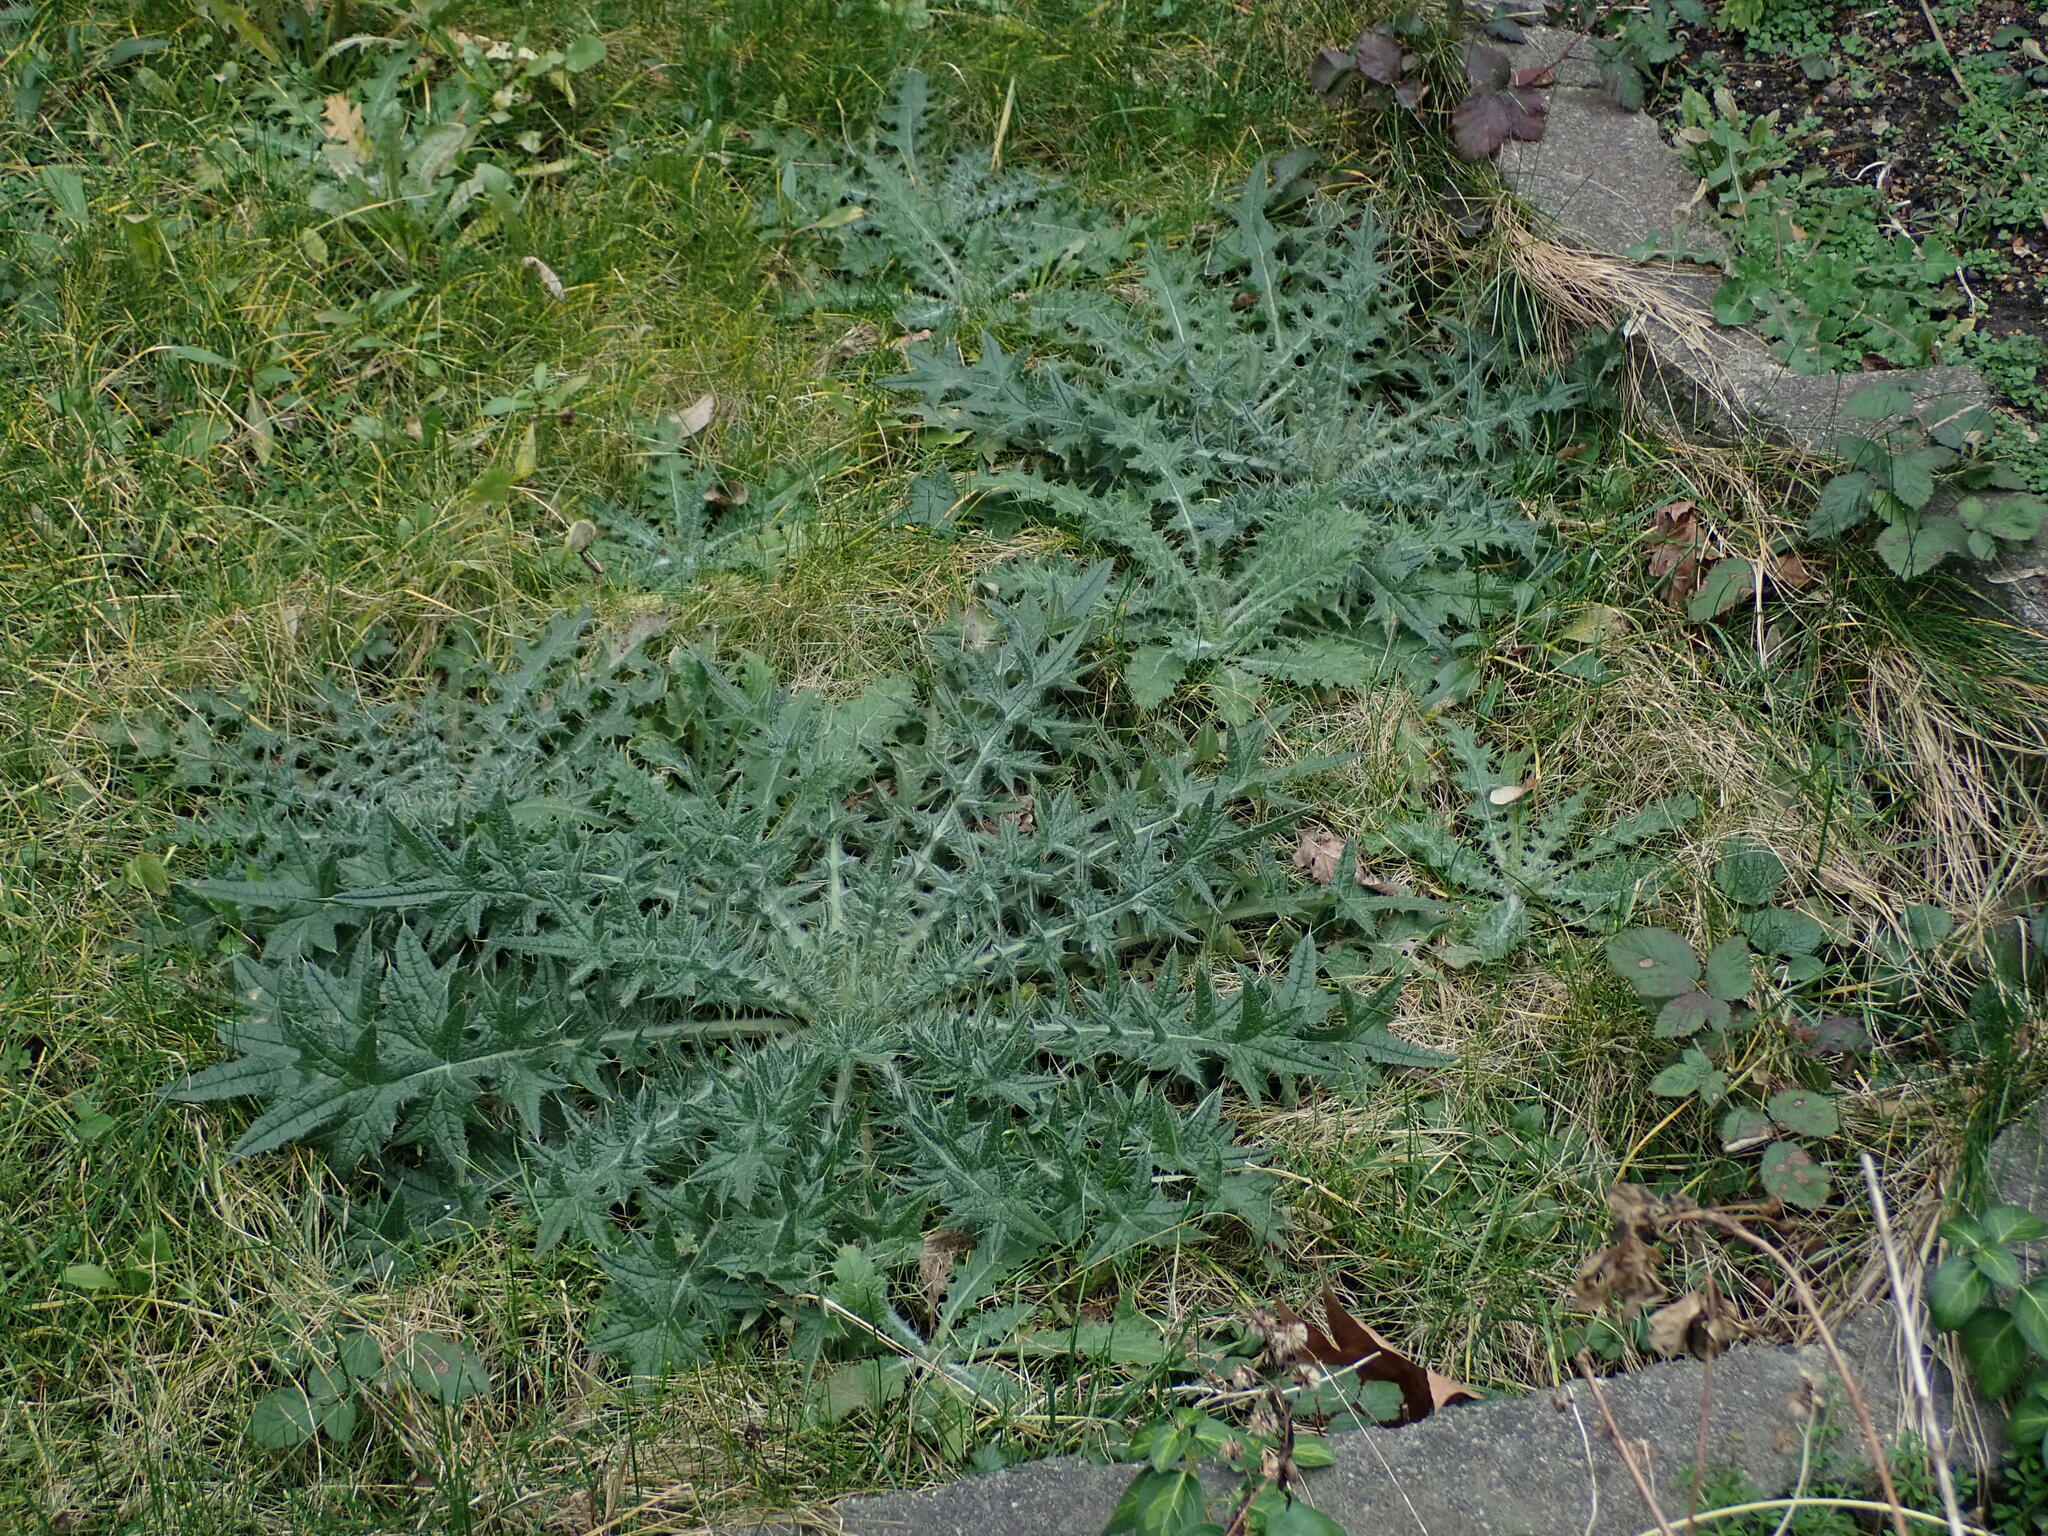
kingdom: Plantae
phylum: Tracheophyta
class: Magnoliopsida
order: Asterales
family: Asteraceae
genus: Cirsium
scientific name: Cirsium vulgare
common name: Bull thistle
